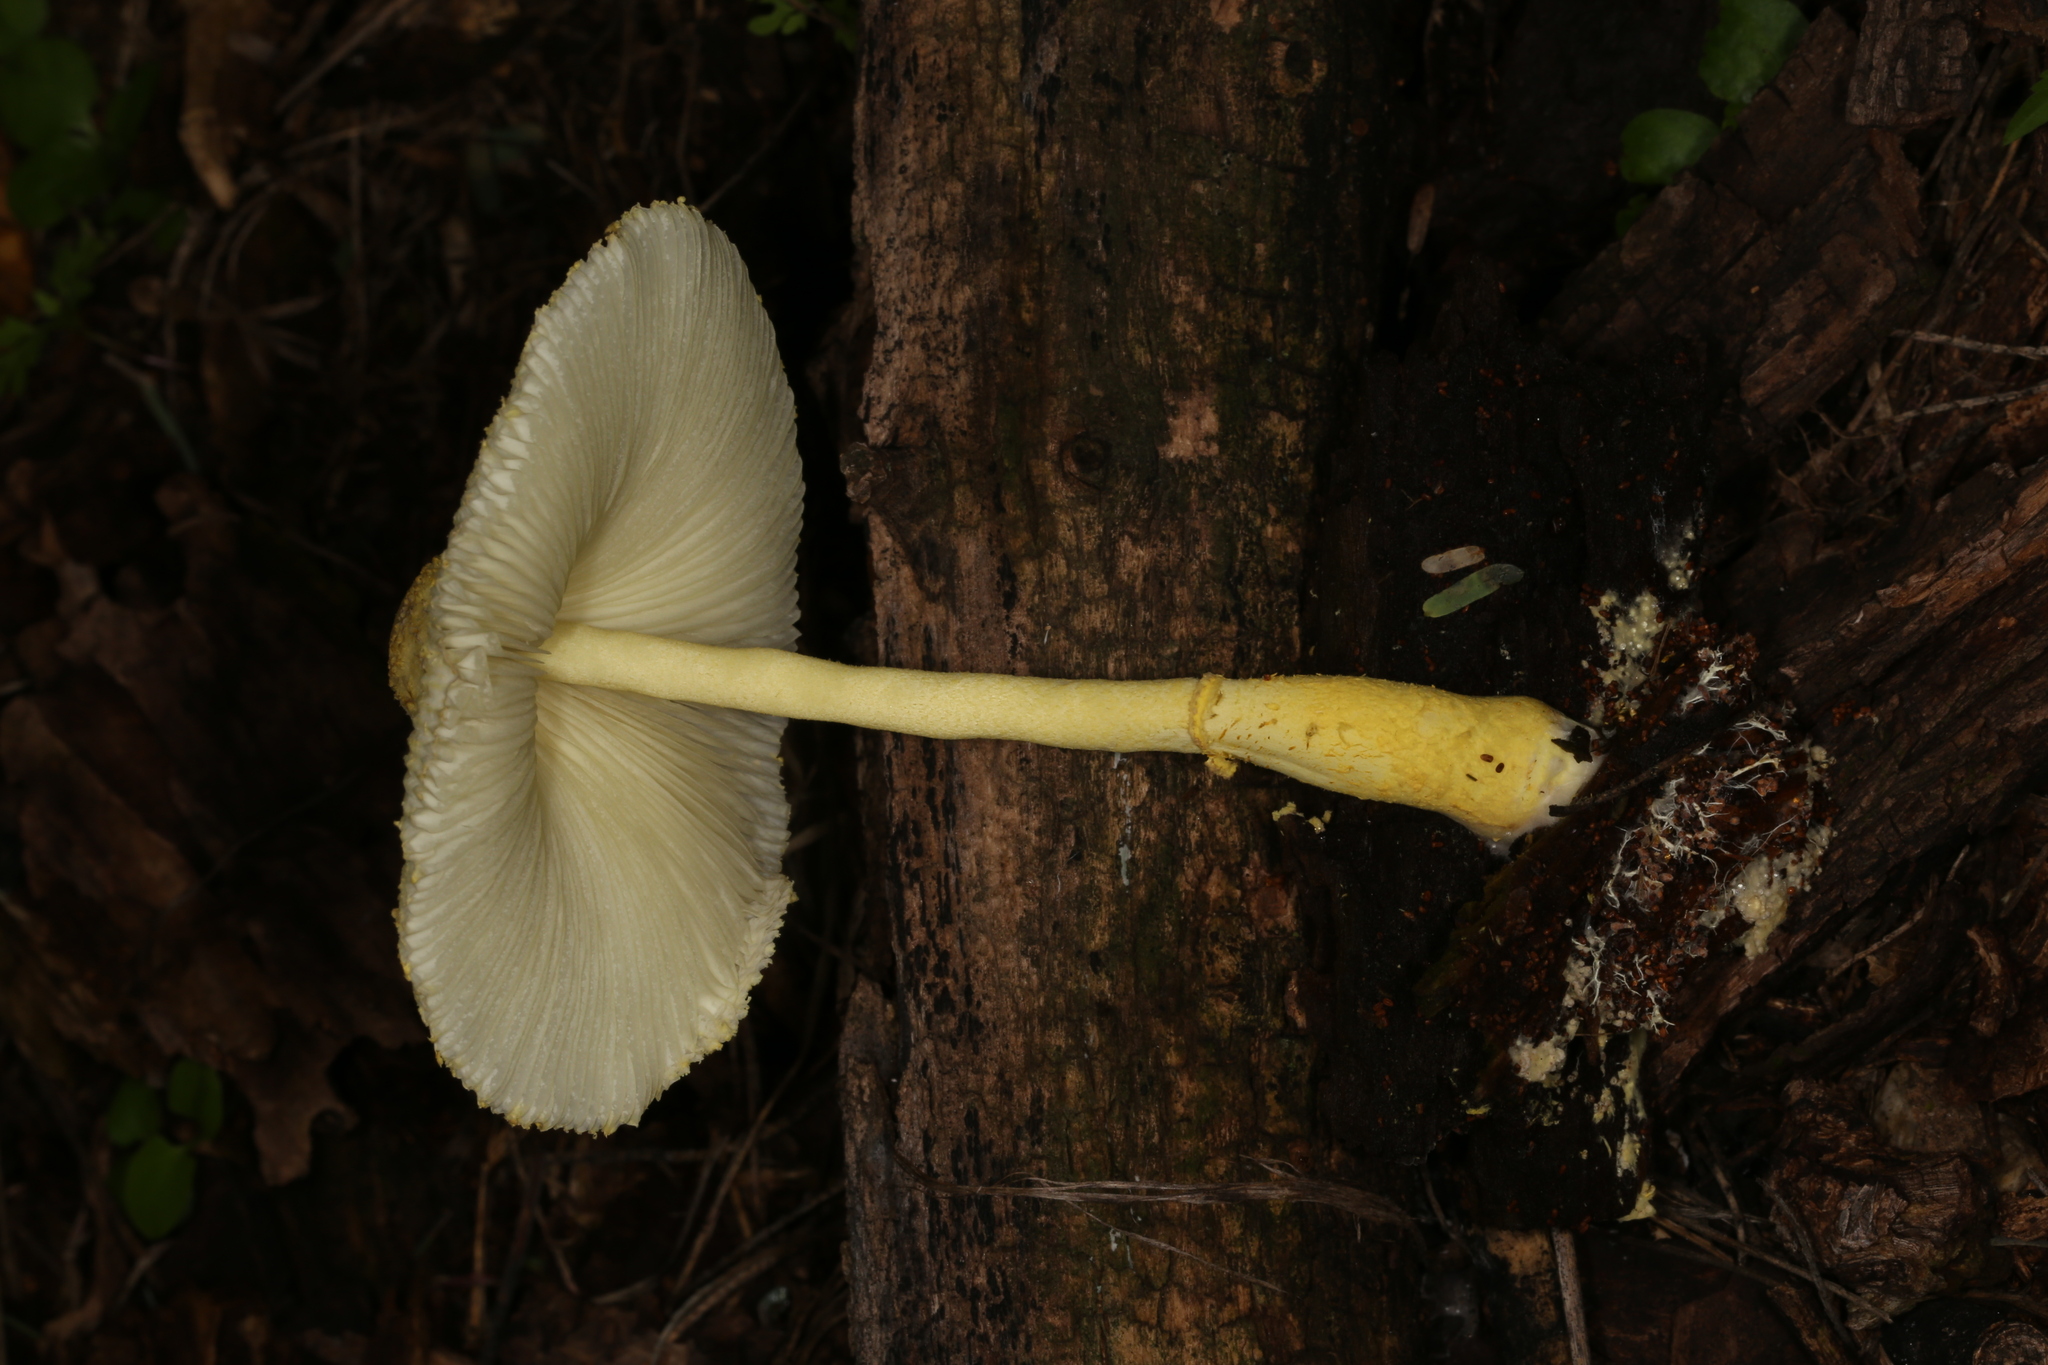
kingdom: Fungi
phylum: Basidiomycota
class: Agaricomycetes
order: Agaricales
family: Agaricaceae
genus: Leucocoprinus
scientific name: Leucocoprinus birnbaumii
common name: Plantpot dapperling
